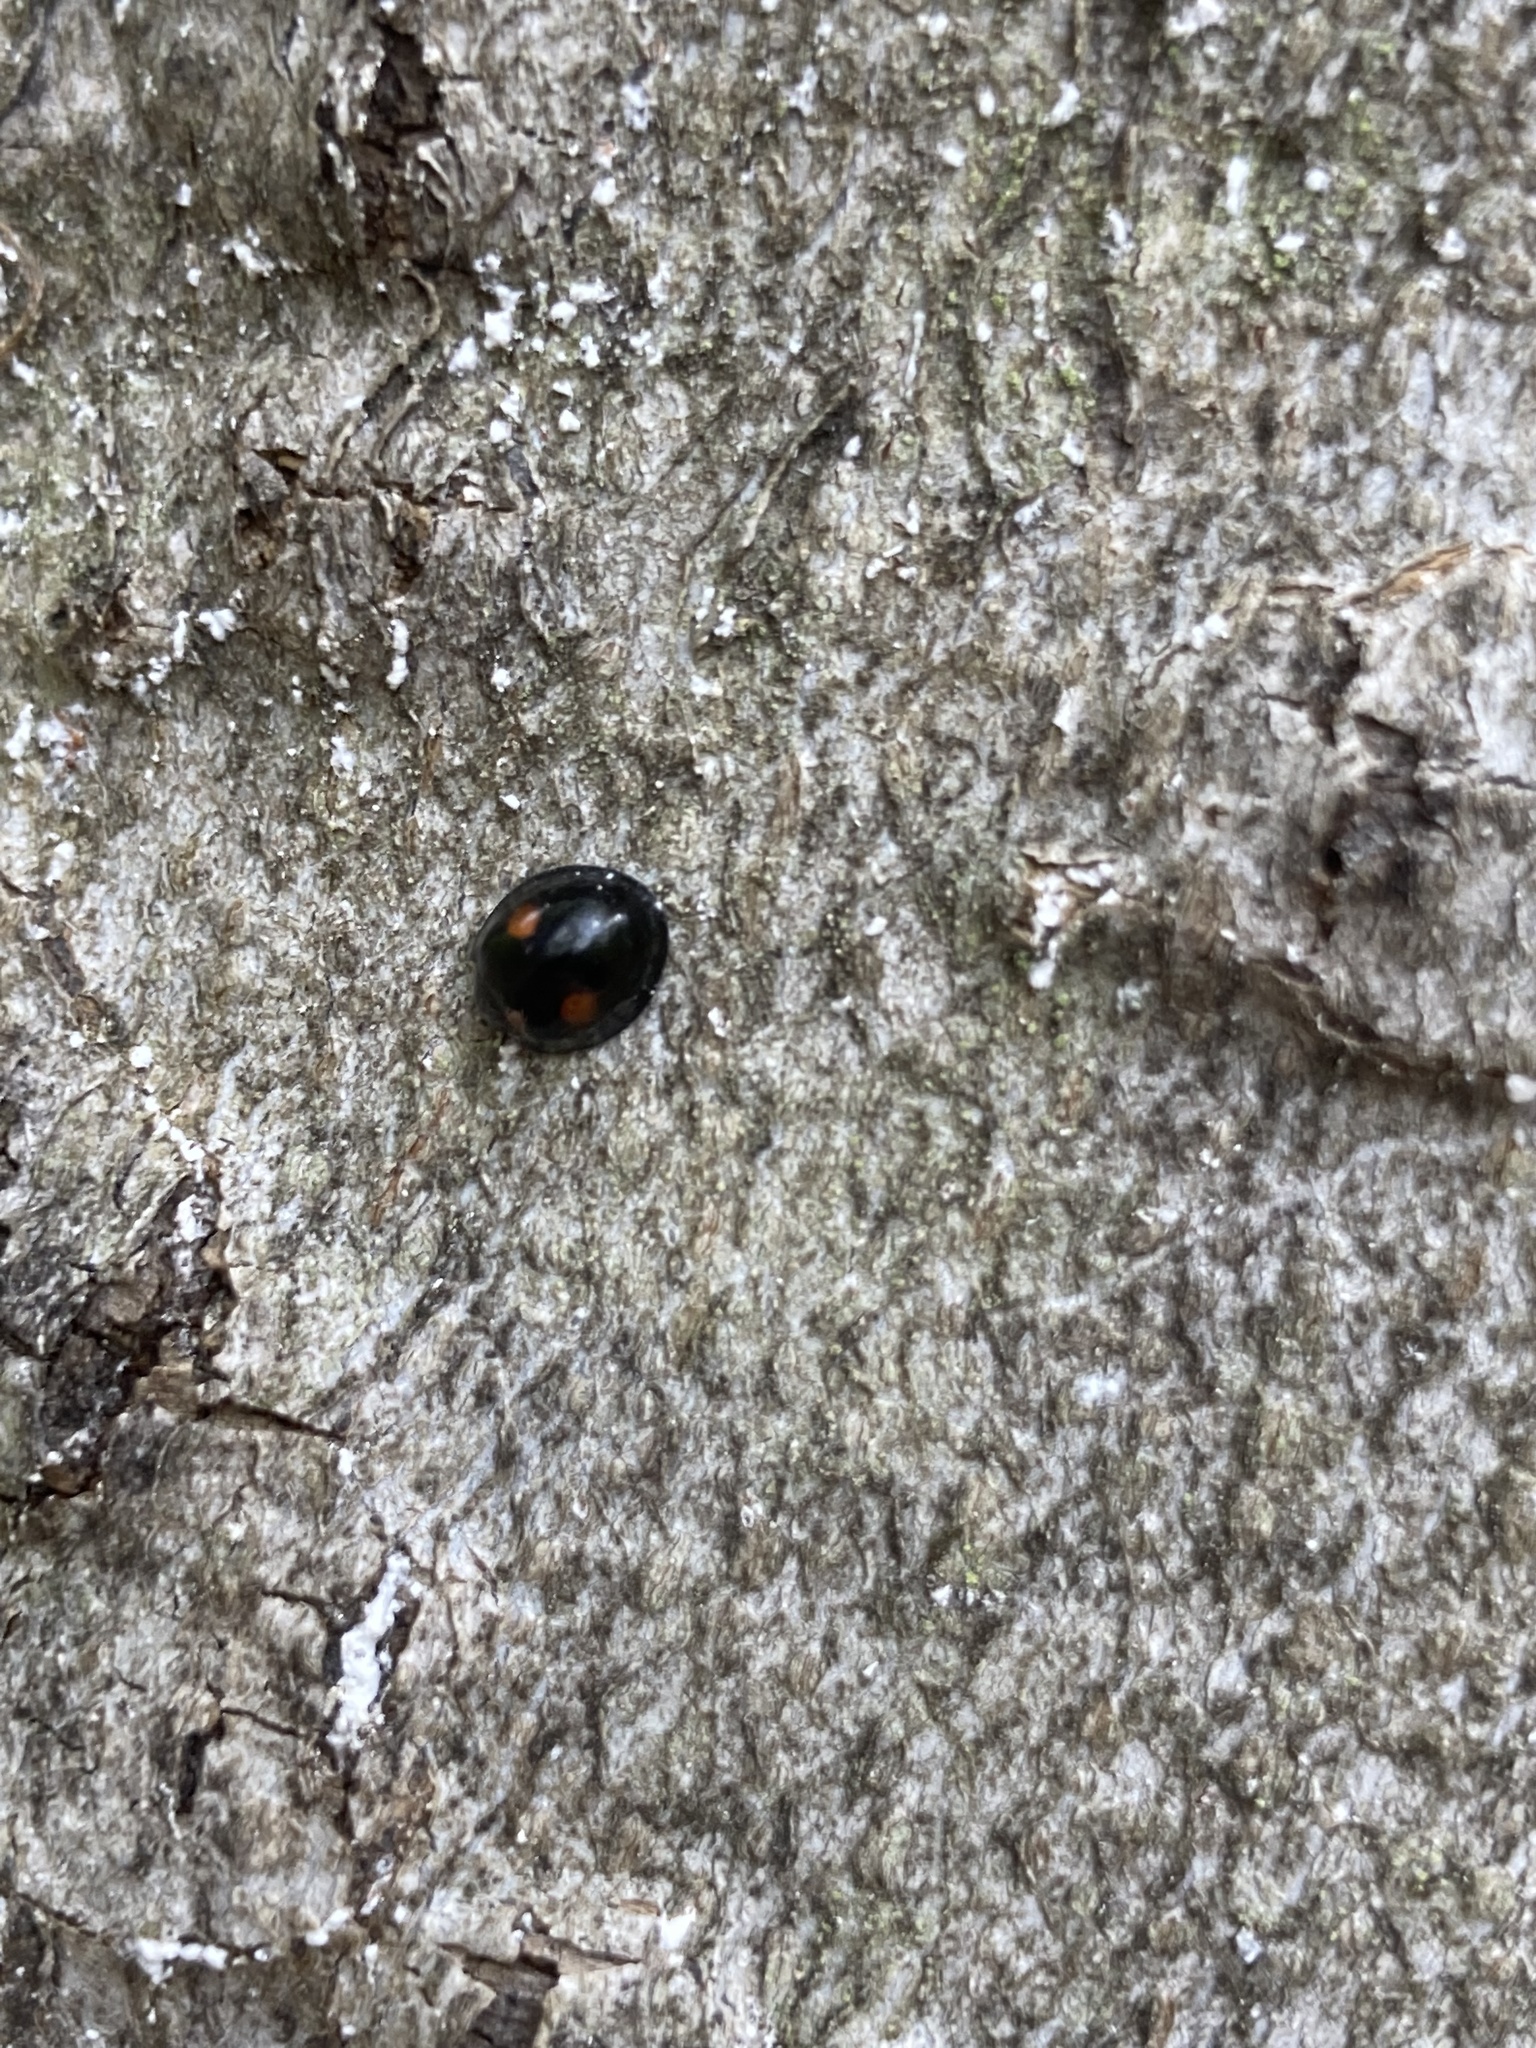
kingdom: Animalia
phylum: Arthropoda
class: Insecta
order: Coleoptera
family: Coccinellidae
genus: Chilocorus
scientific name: Chilocorus stigma
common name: Twicestabbed lady beetle
